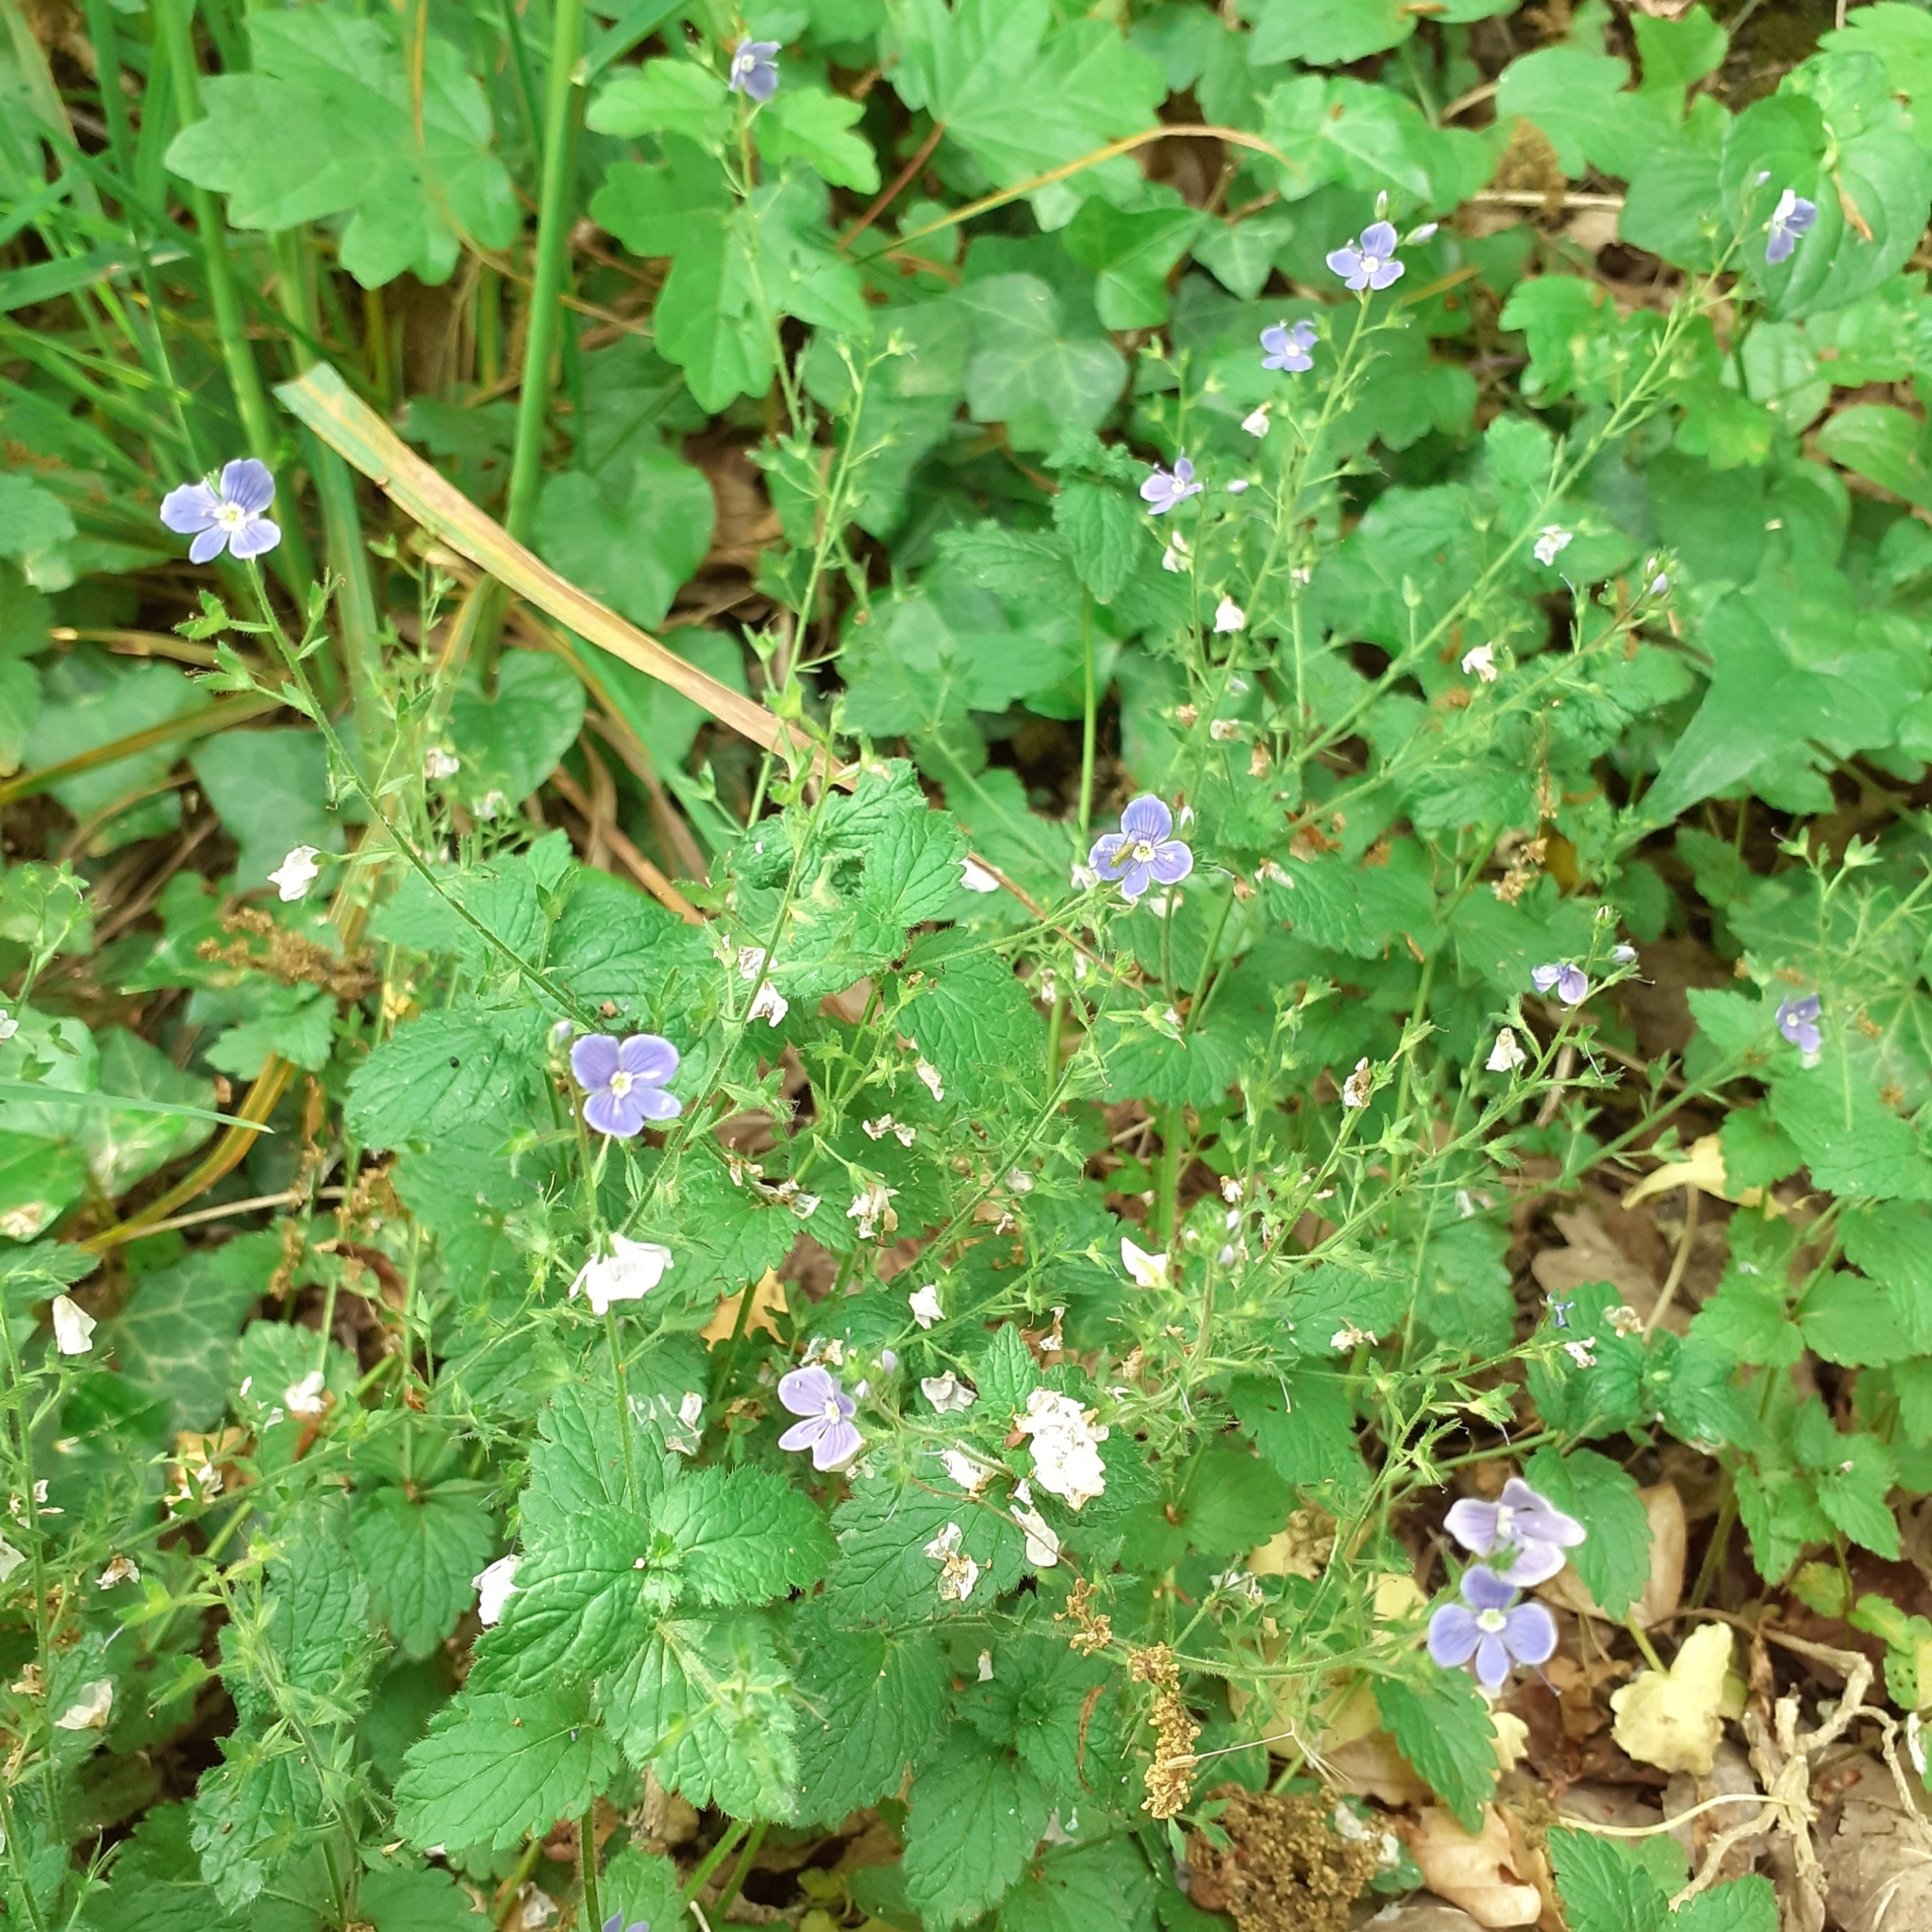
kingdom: Plantae
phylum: Tracheophyta
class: Magnoliopsida
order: Lamiales
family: Plantaginaceae
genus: Veronica
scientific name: Veronica chamaedrys
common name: Germander speedwell
